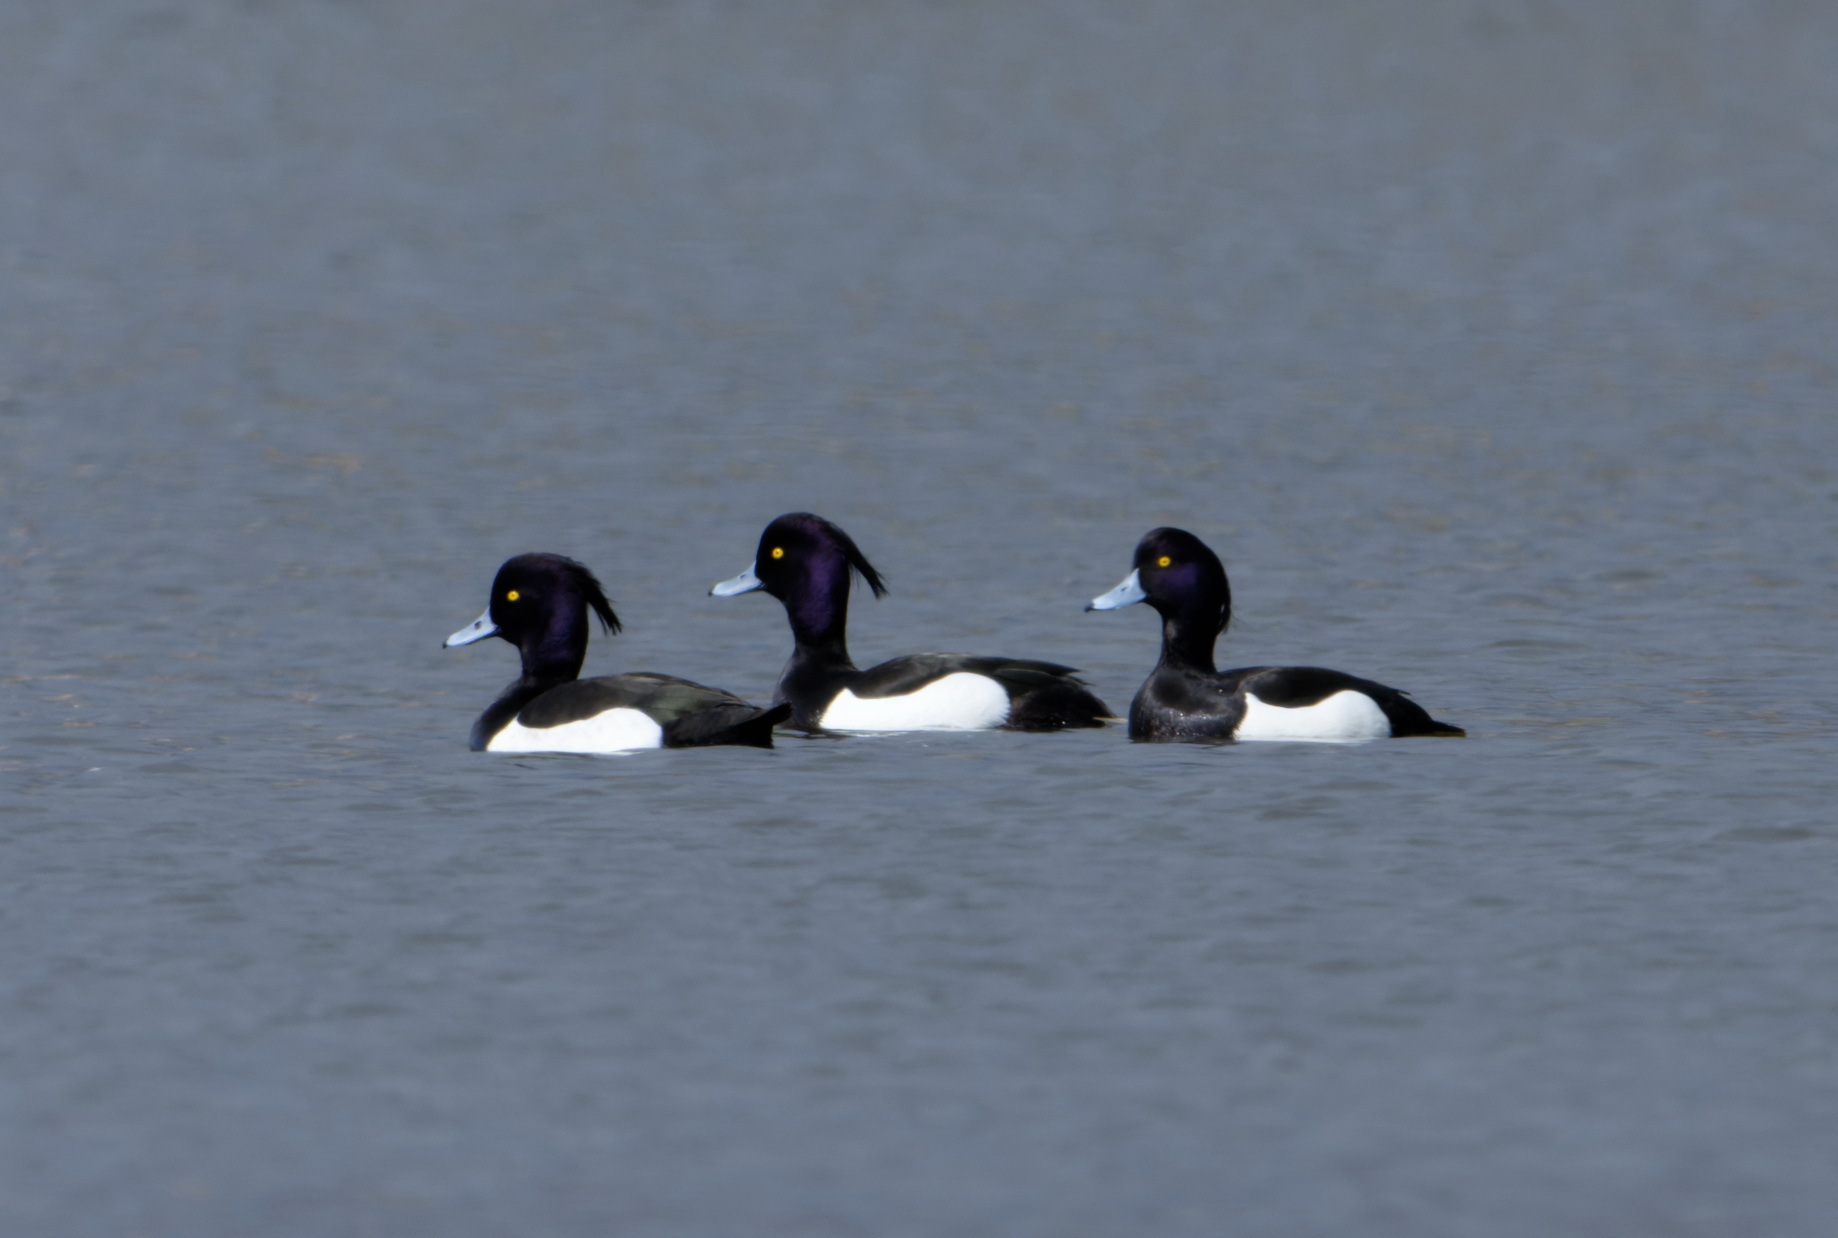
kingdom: Animalia
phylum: Chordata
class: Aves
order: Anseriformes
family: Anatidae
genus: Aythya
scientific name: Aythya fuligula
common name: Tufted duck
